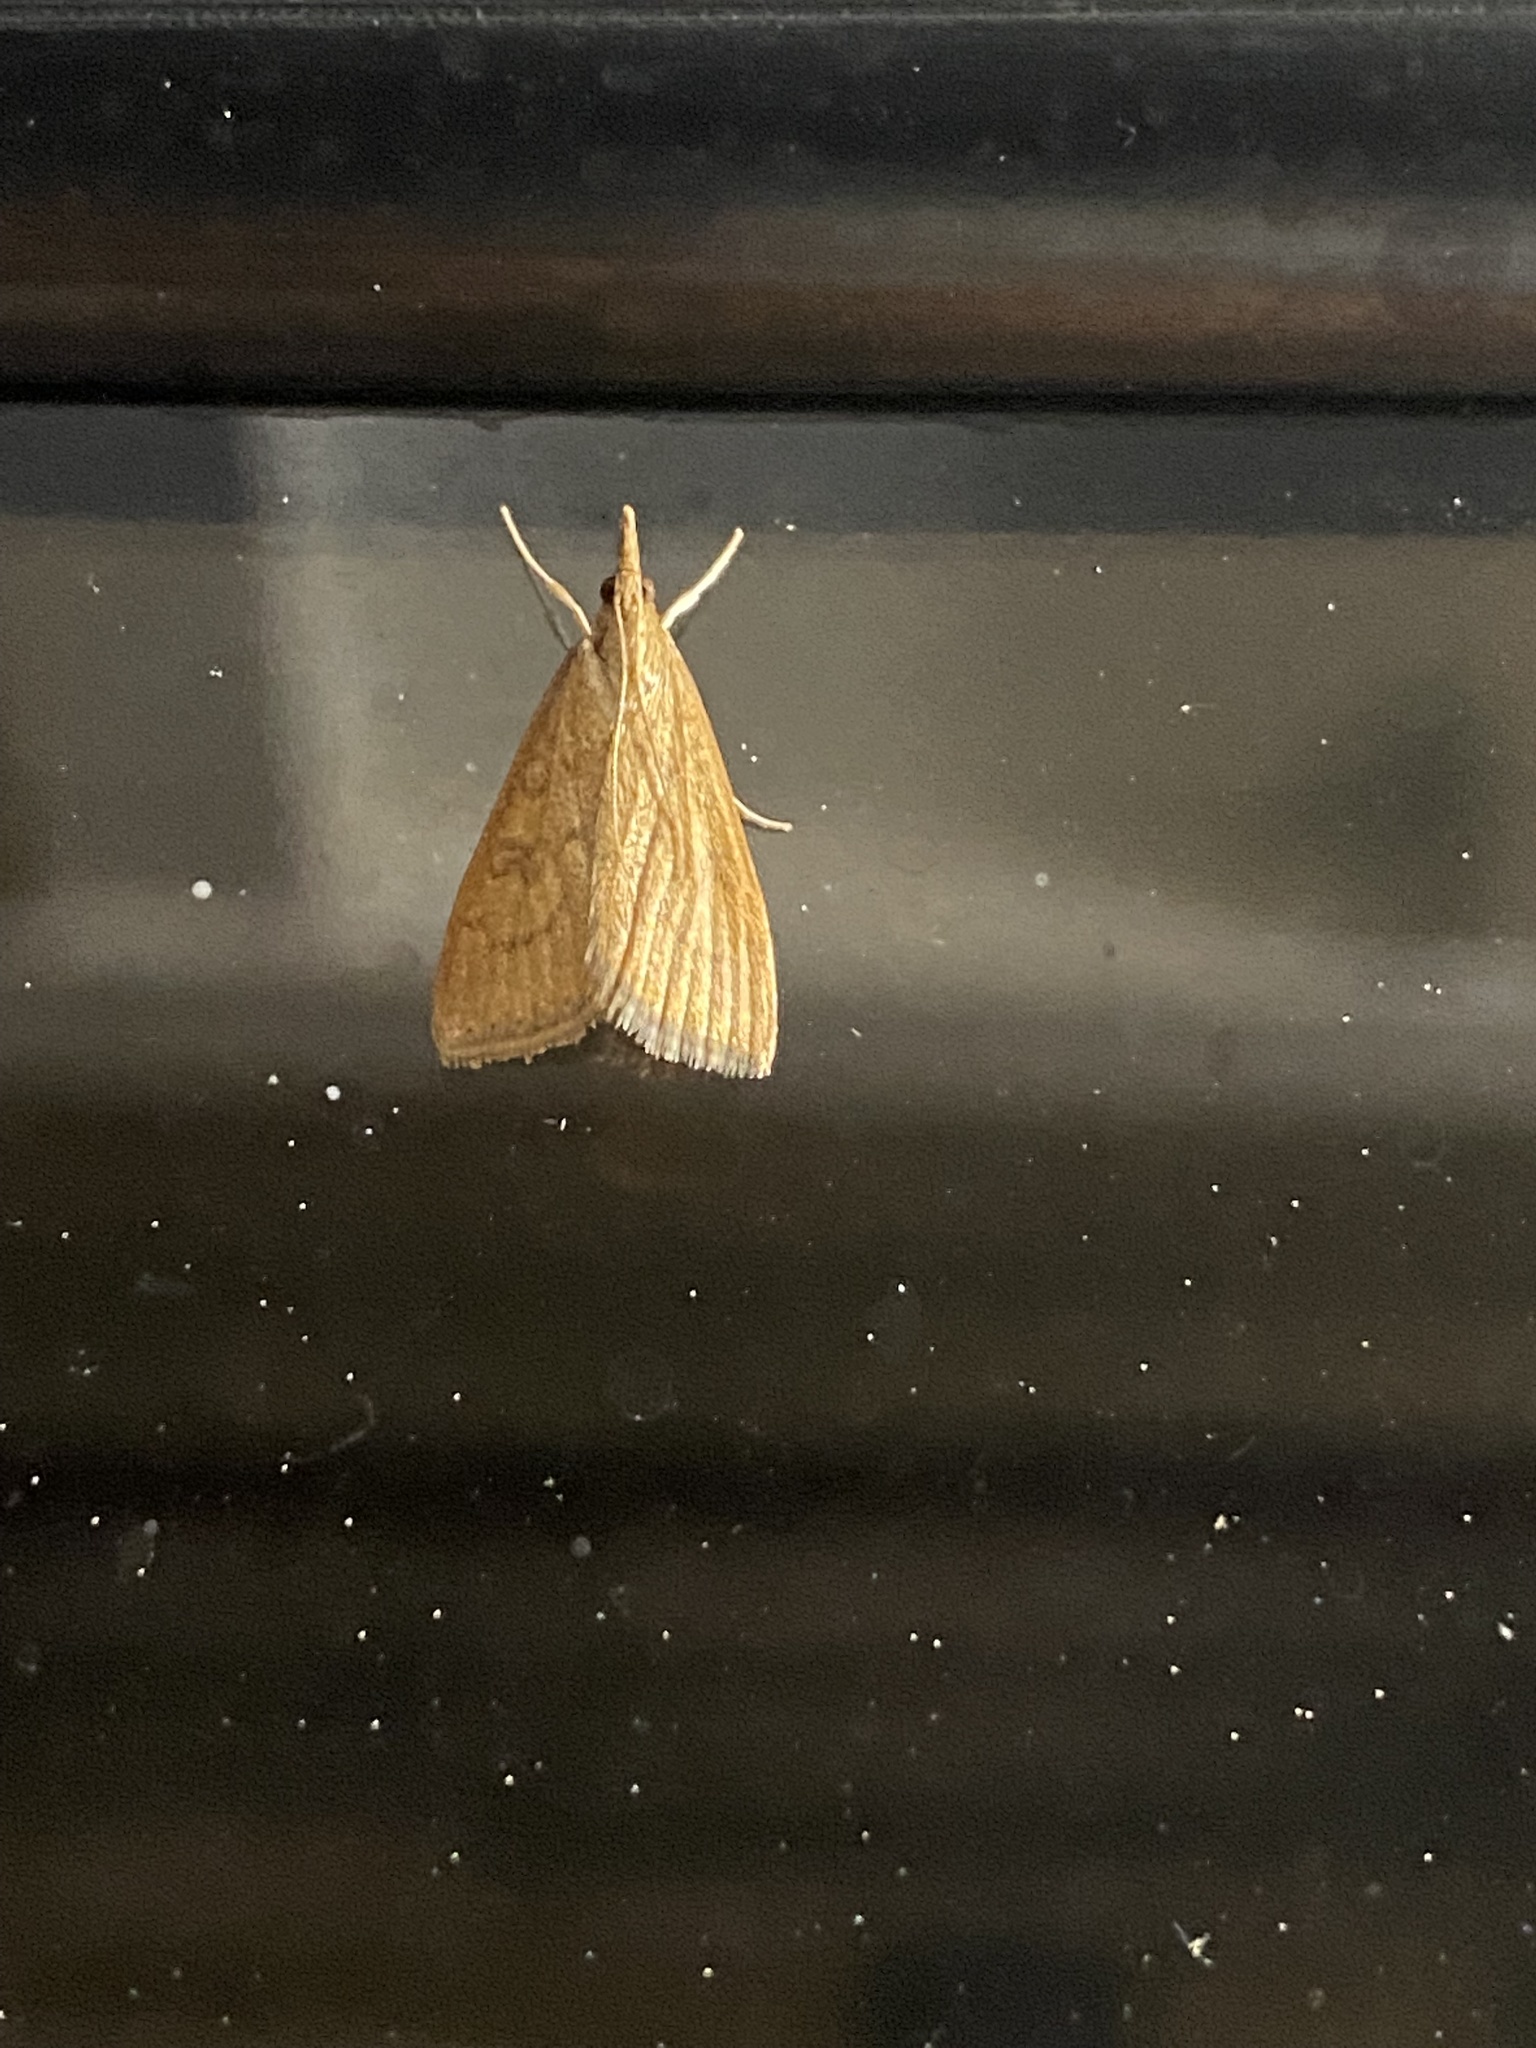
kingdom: Animalia
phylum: Arthropoda
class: Insecta
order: Lepidoptera
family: Crambidae
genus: Udea
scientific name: Udea rubigalis
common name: Celery leaftier moth
